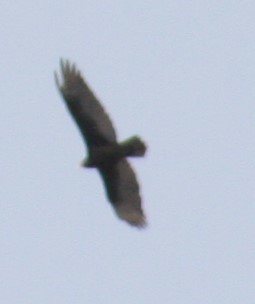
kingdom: Animalia
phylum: Chordata
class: Aves
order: Accipitriformes
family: Cathartidae
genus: Cathartes
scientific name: Cathartes aura
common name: Turkey vulture
